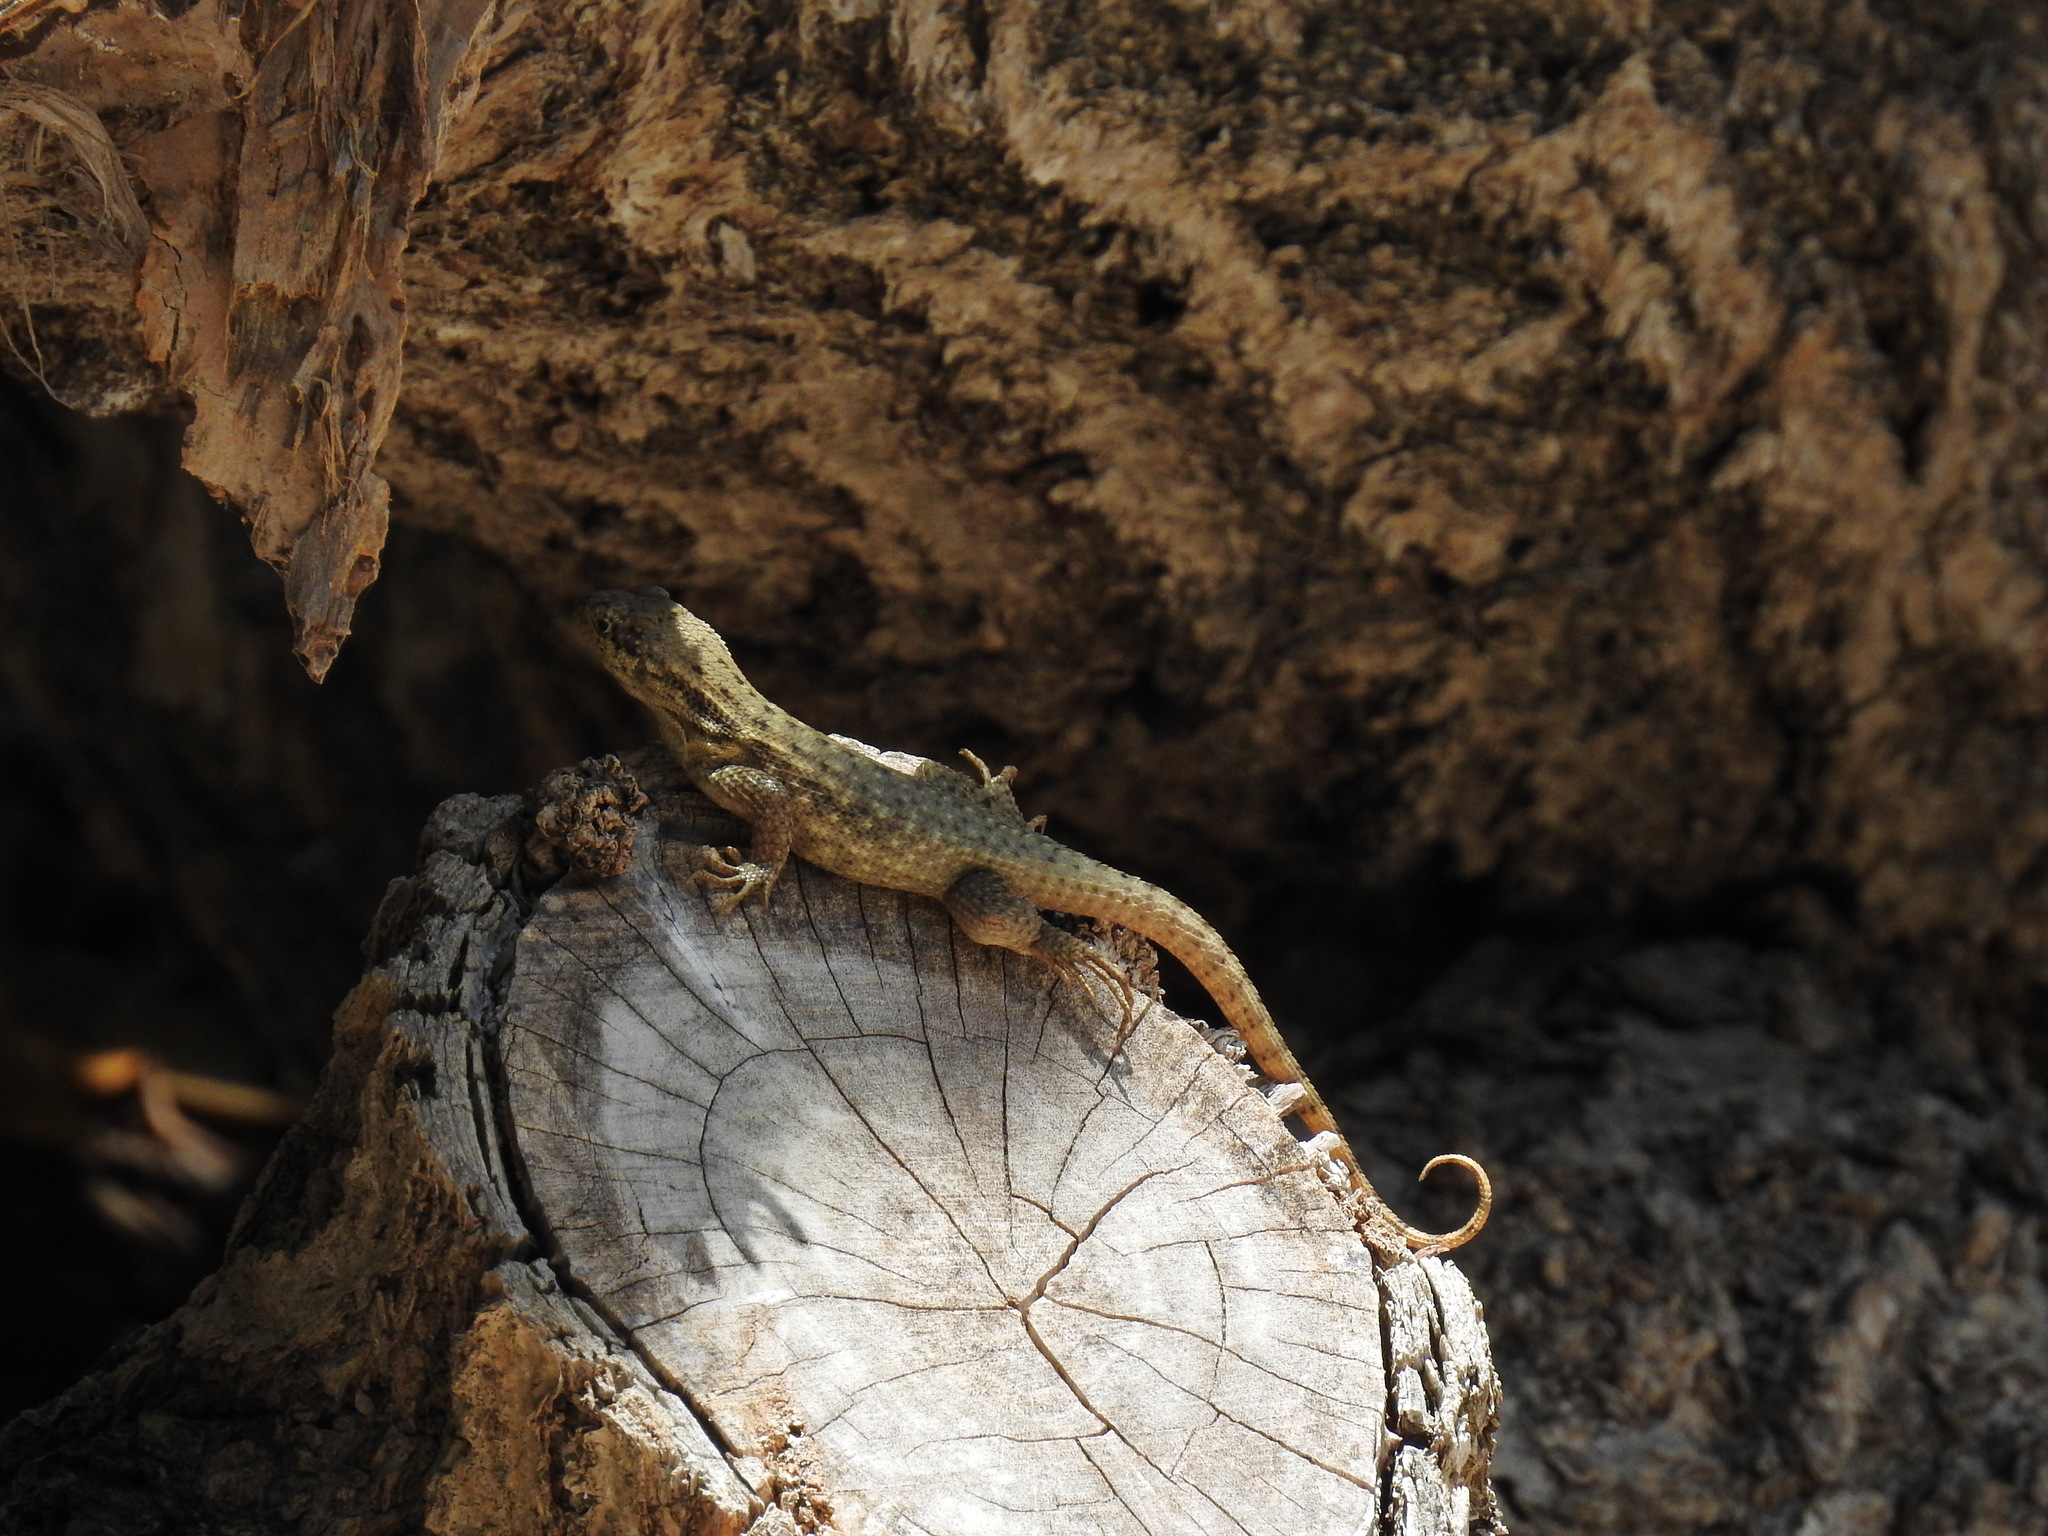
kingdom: Animalia
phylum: Chordata
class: Squamata
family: Leiocephalidae
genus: Leiocephalus
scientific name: Leiocephalus carinatus
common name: Northern curly-tailed lizard
